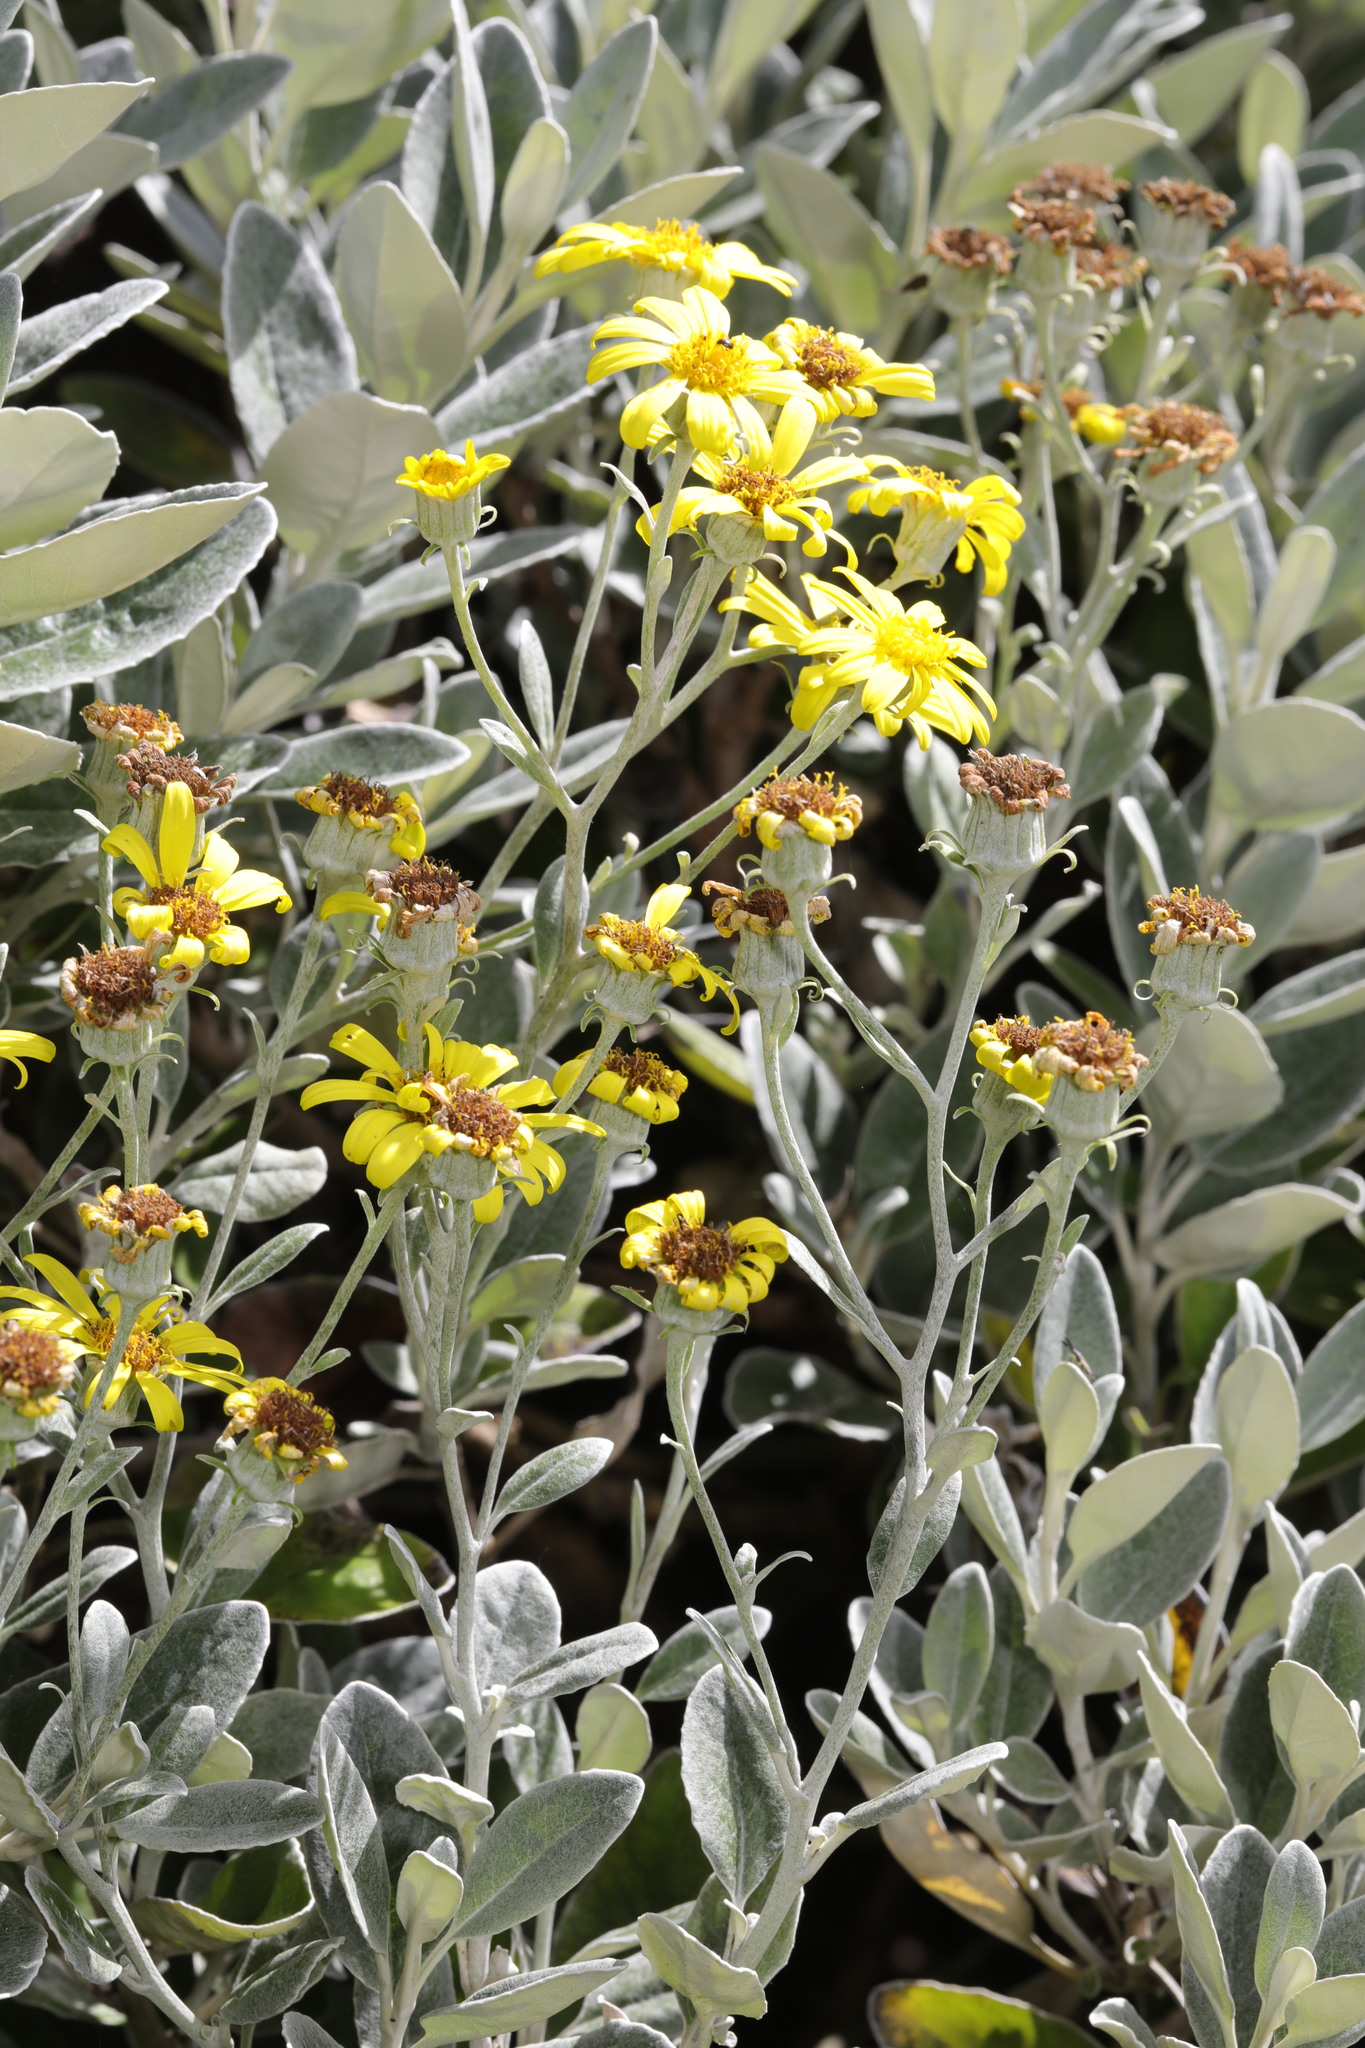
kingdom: Plantae
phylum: Tracheophyta
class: Magnoliopsida
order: Asterales
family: Asteraceae
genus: Brachyglottis
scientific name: Brachyglottis jubar
